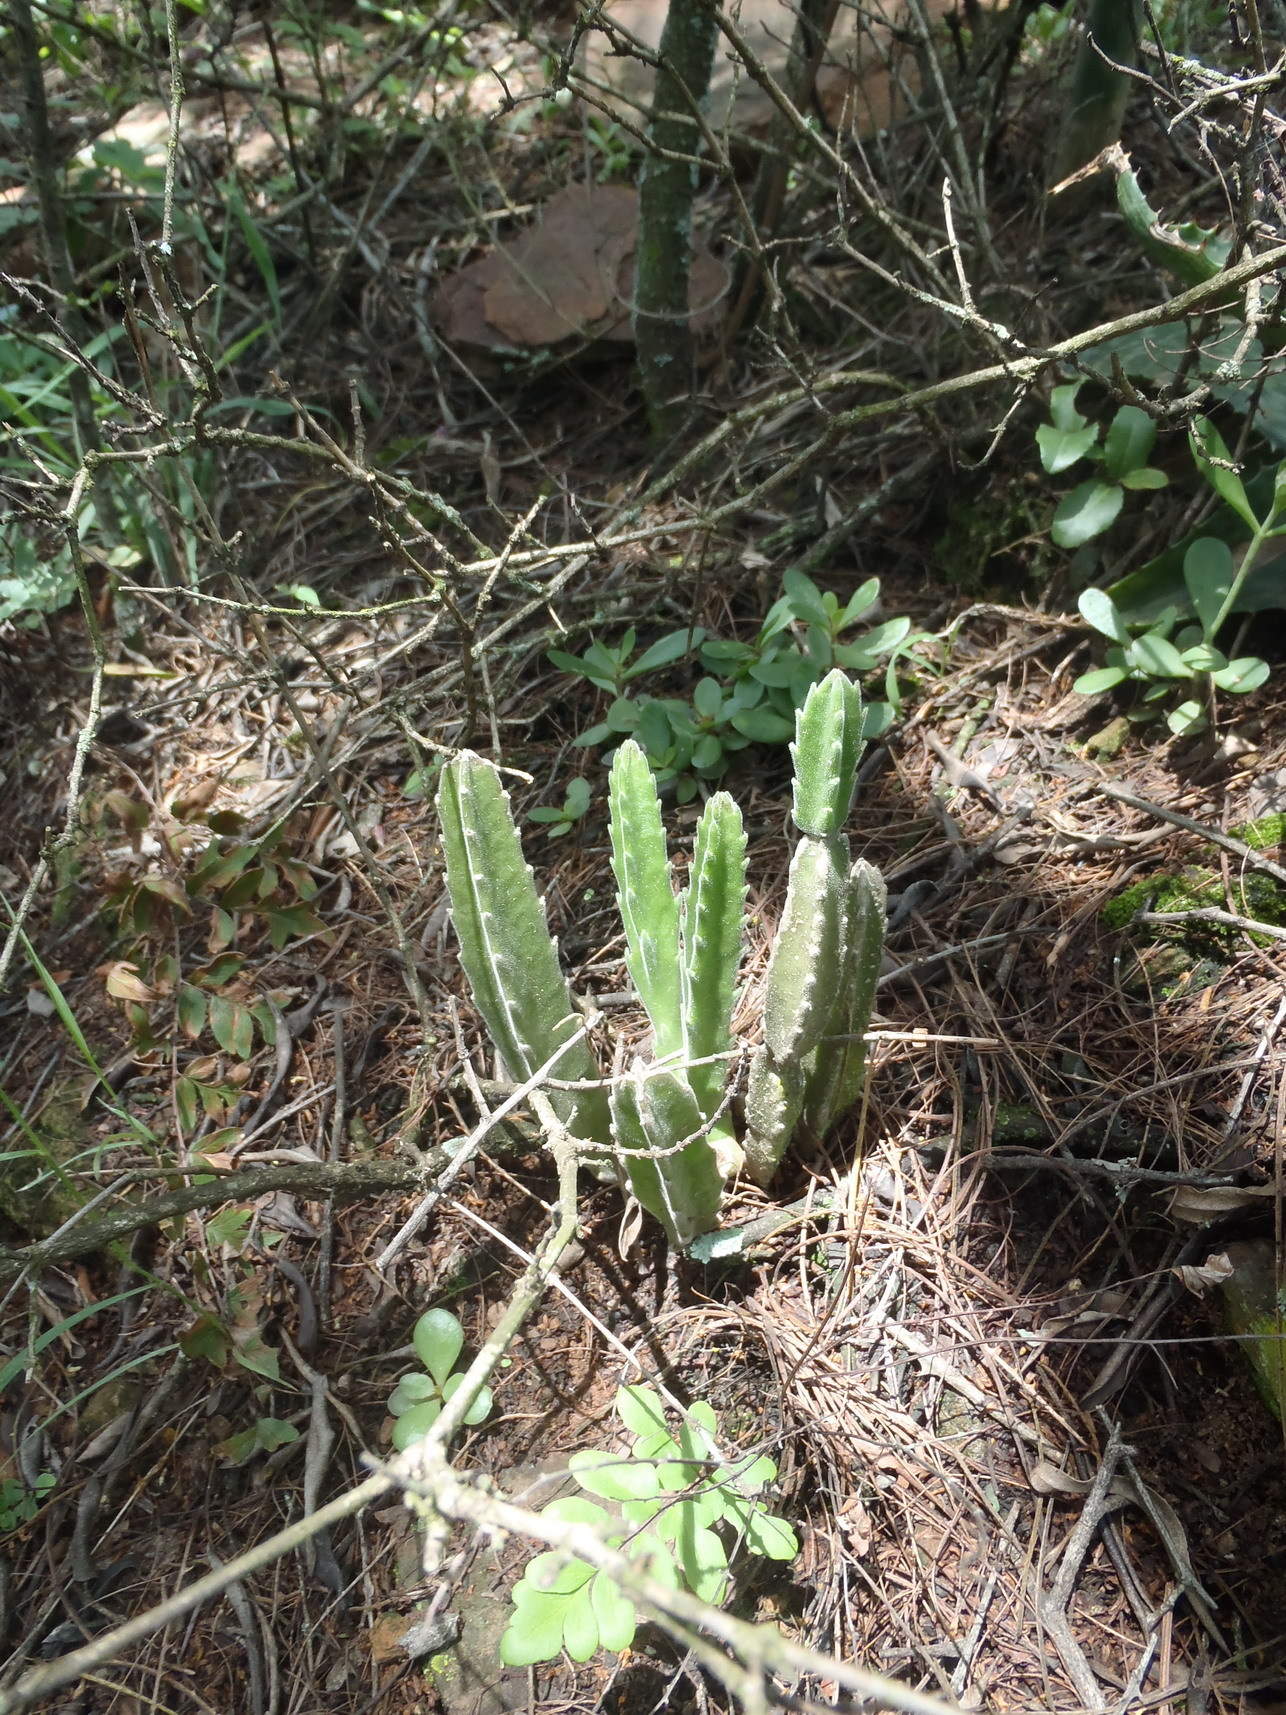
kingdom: Plantae
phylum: Tracheophyta
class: Magnoliopsida
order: Gentianales
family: Apocynaceae
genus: Ceropegia
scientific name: Ceropegia gigantea
